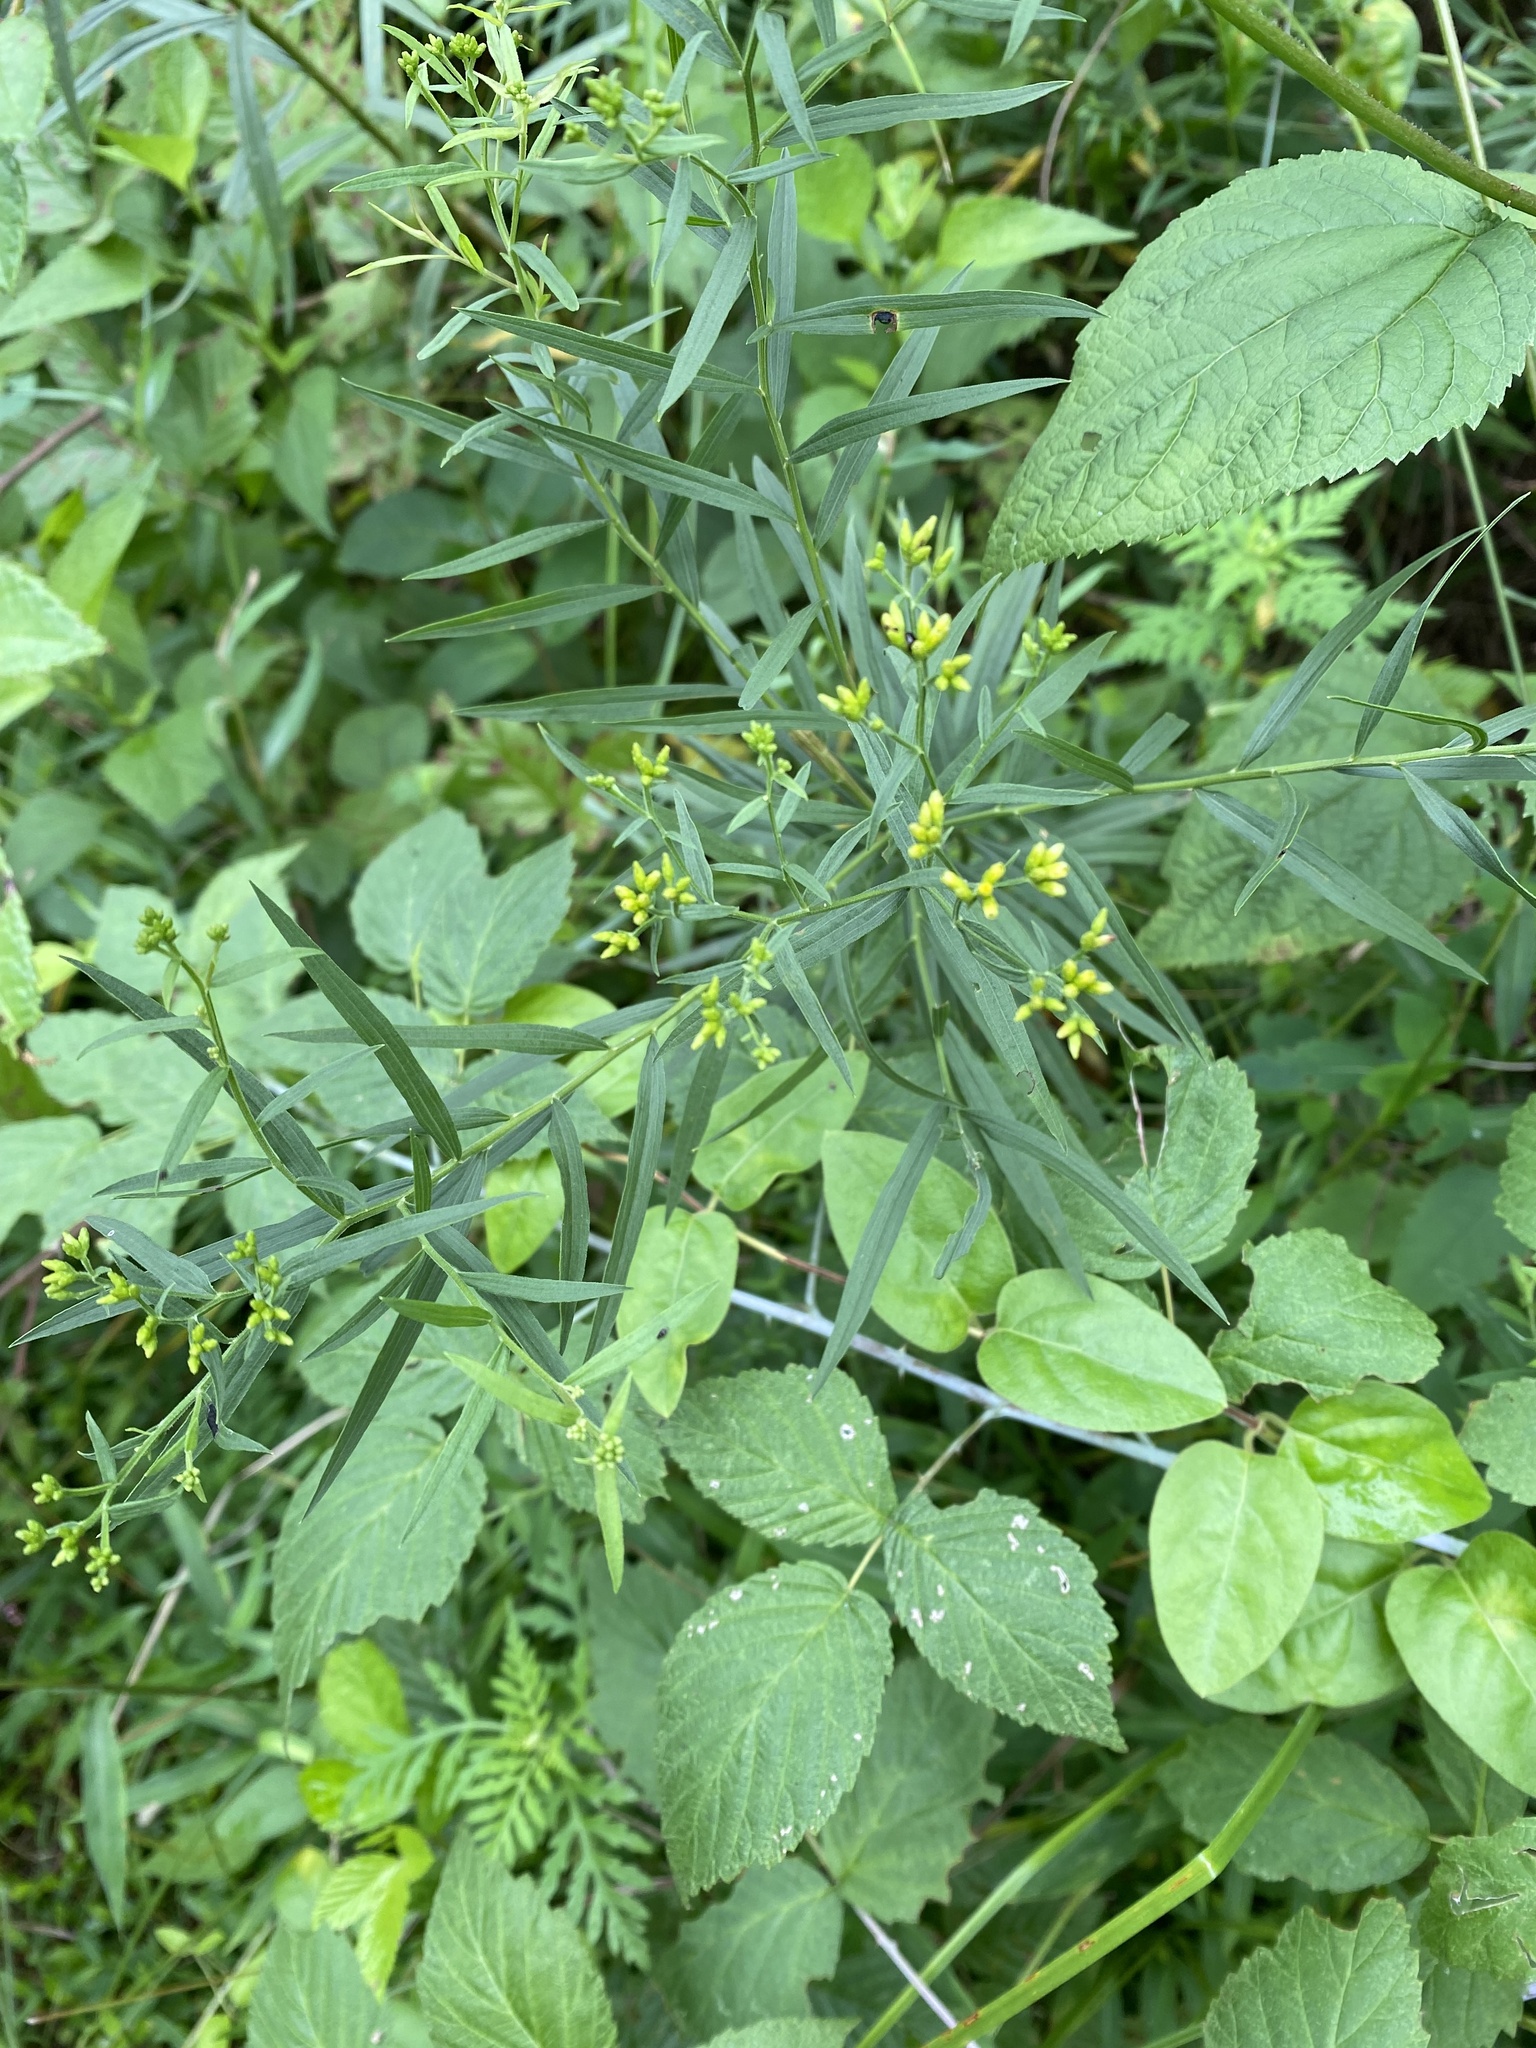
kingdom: Plantae
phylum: Tracheophyta
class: Magnoliopsida
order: Asterales
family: Asteraceae
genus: Euthamia
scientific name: Euthamia graminifolia
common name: Common goldentop
